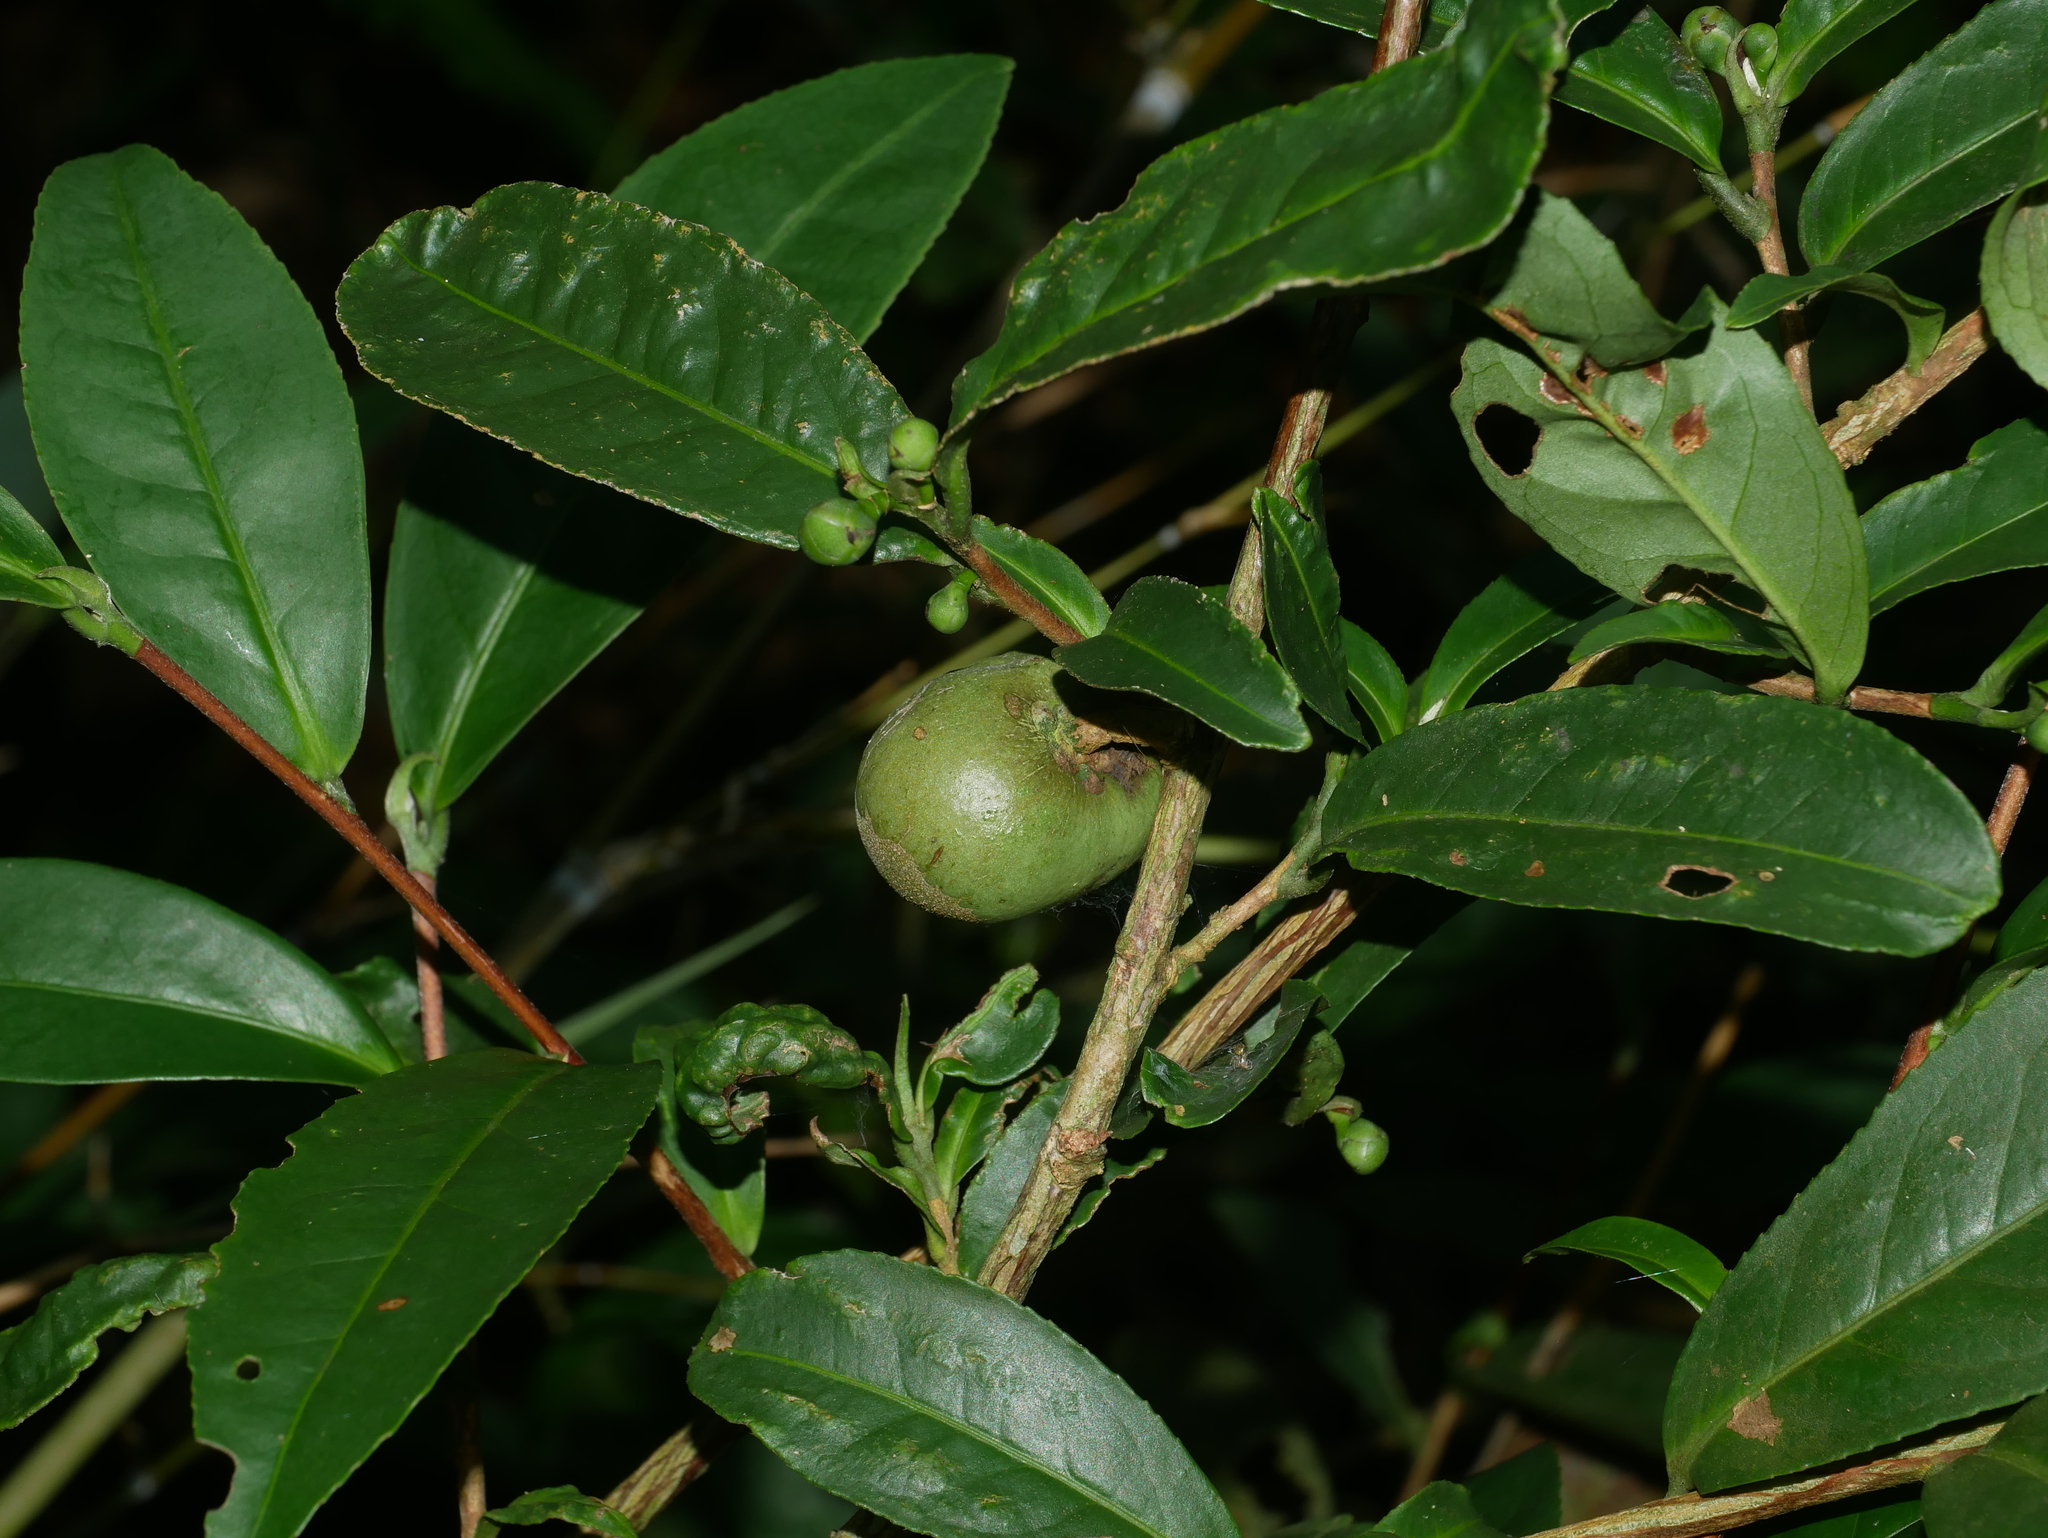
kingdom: Plantae
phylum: Tracheophyta
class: Magnoliopsida
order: Ericales
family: Theaceae
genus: Camellia
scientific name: Camellia sinensis
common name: Tea
